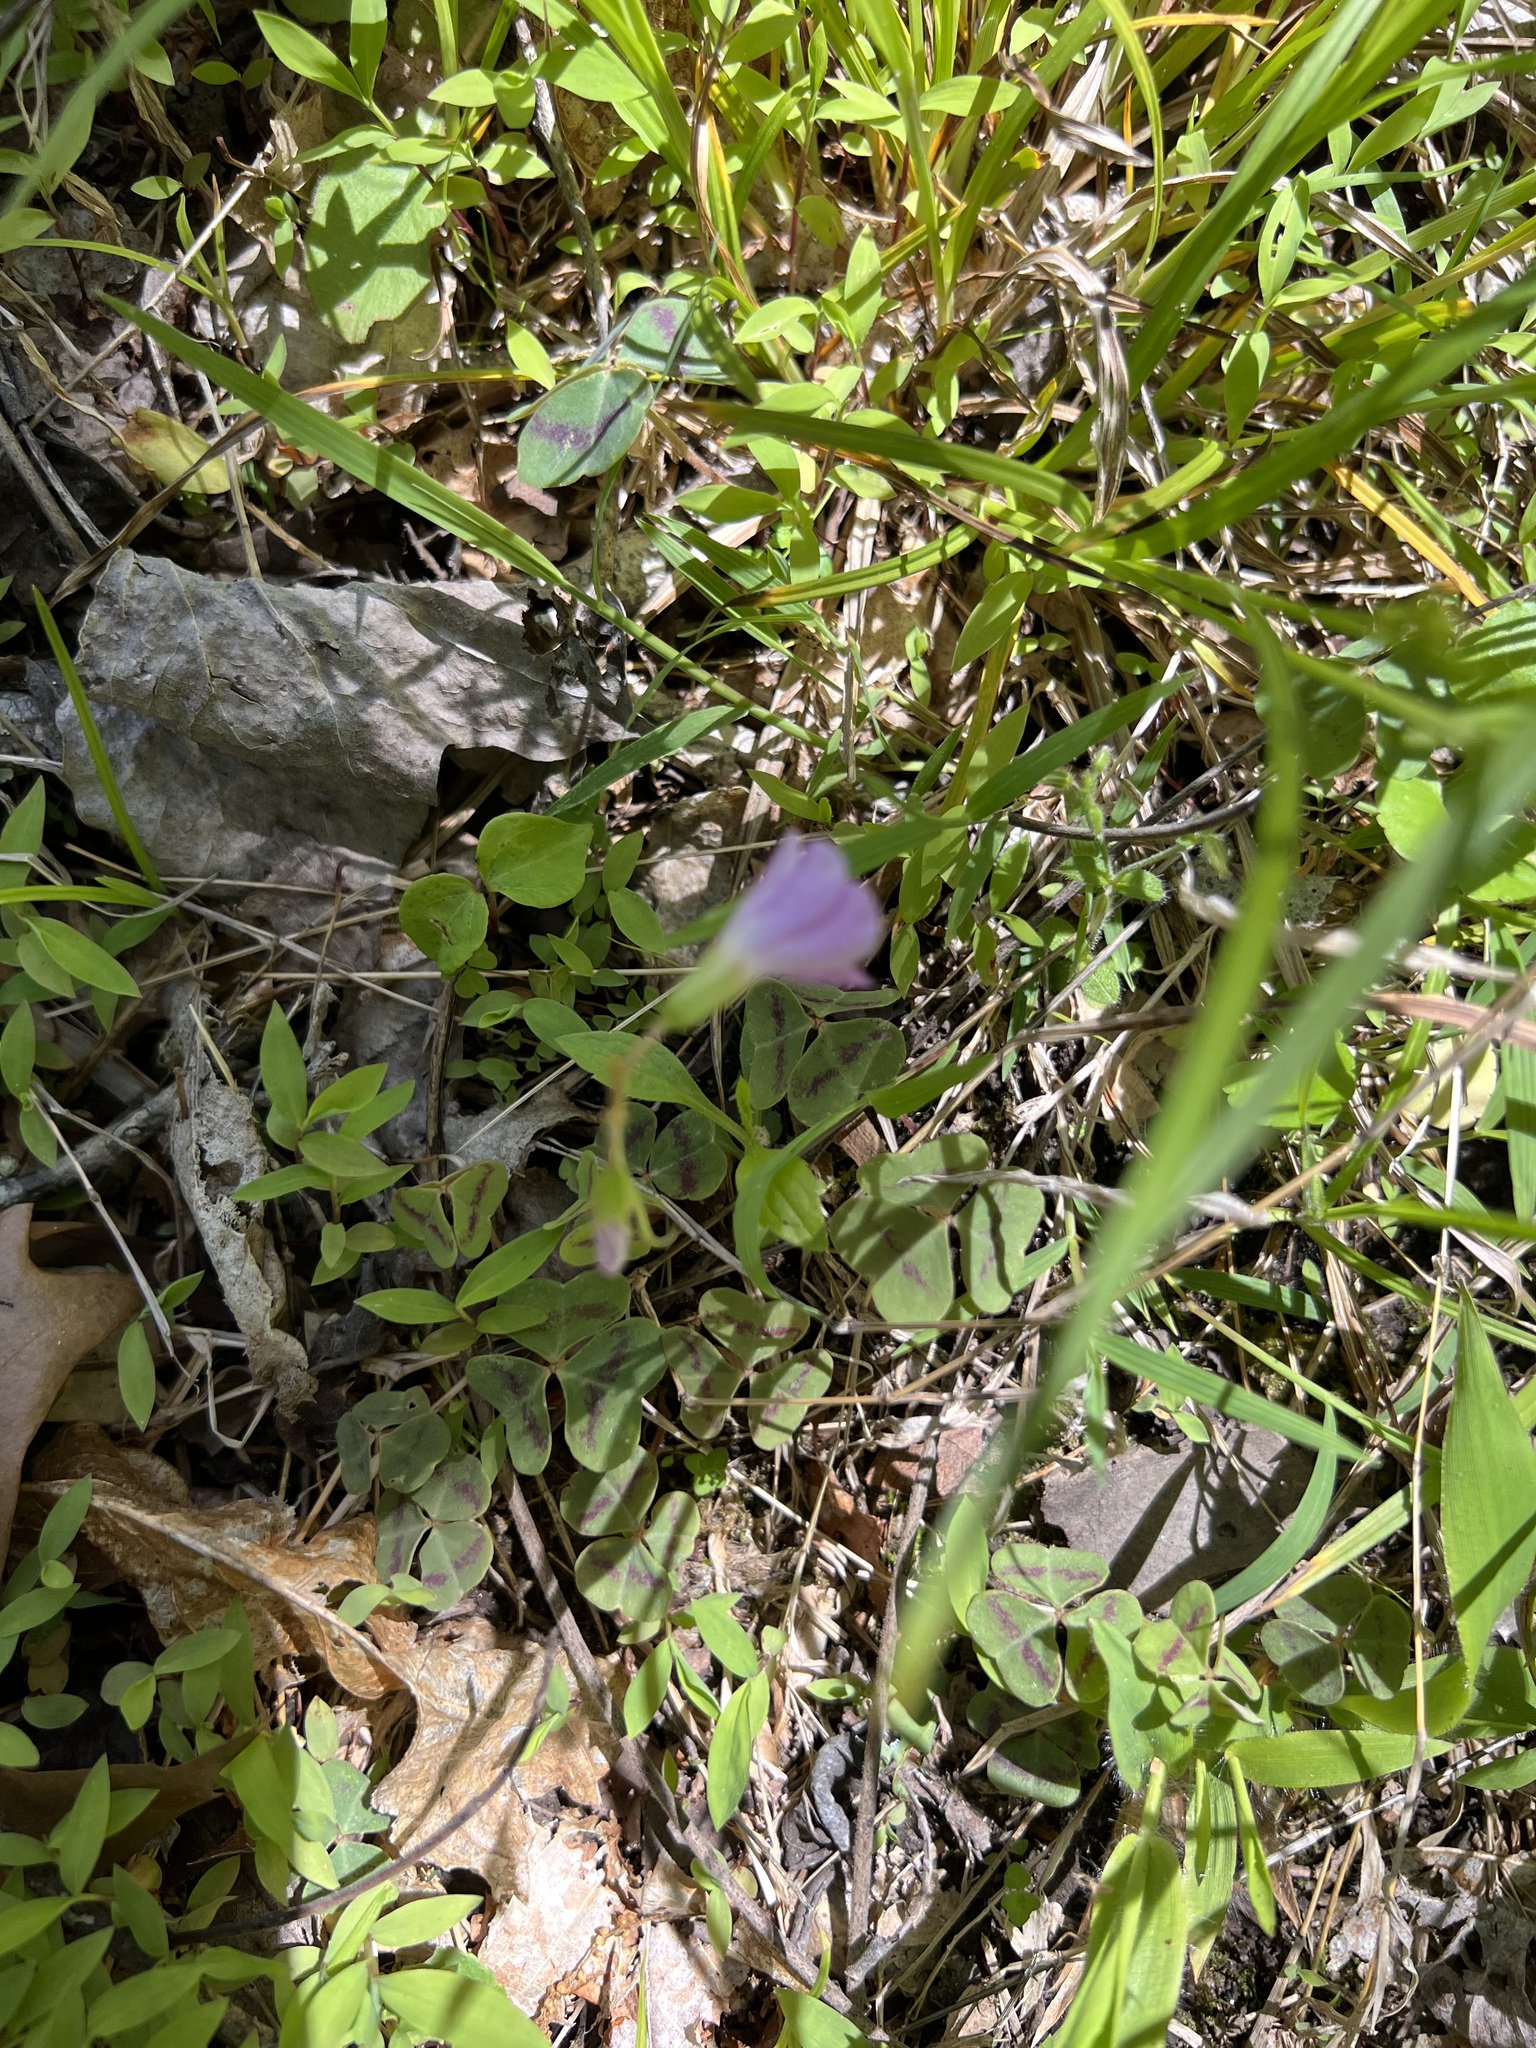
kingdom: Plantae
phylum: Tracheophyta
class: Magnoliopsida
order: Oxalidales
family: Oxalidaceae
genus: Oxalis
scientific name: Oxalis violacea
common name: Violet wood-sorrel
